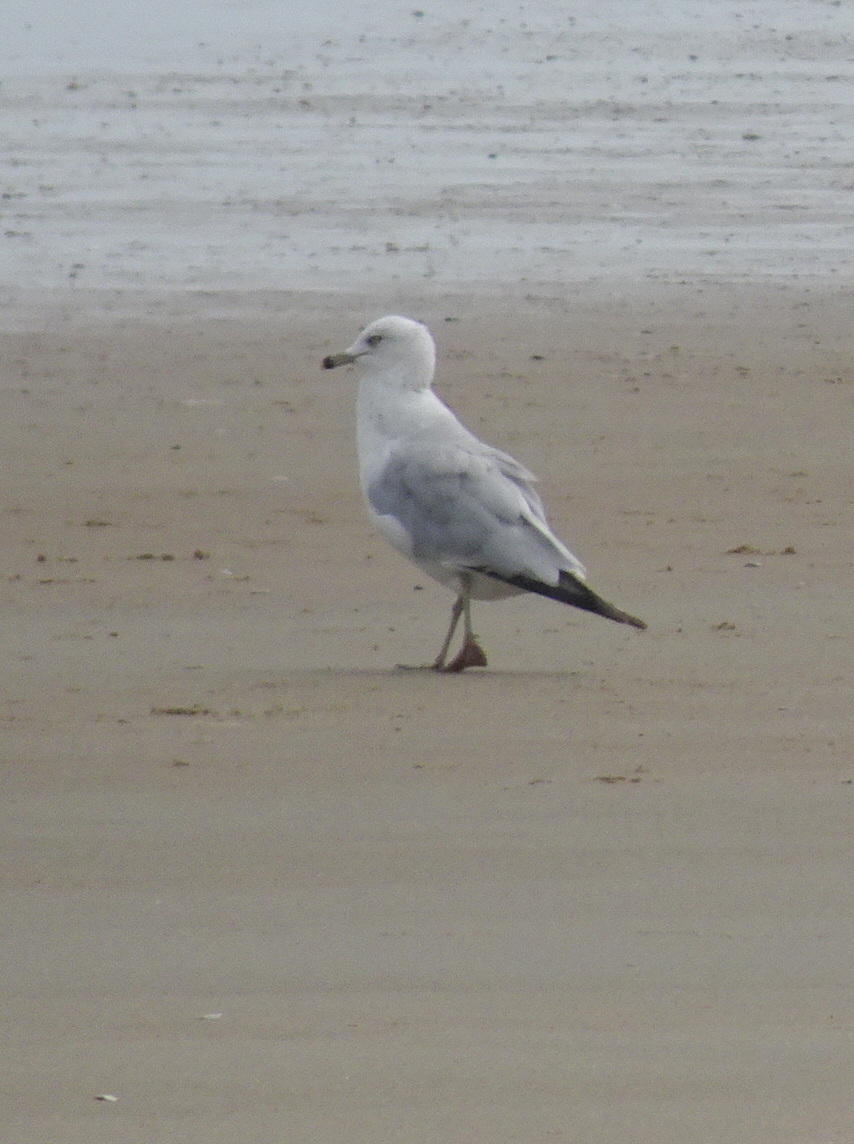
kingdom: Animalia
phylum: Chordata
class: Aves
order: Charadriiformes
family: Laridae
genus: Larus
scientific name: Larus delawarensis
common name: Ring-billed gull
